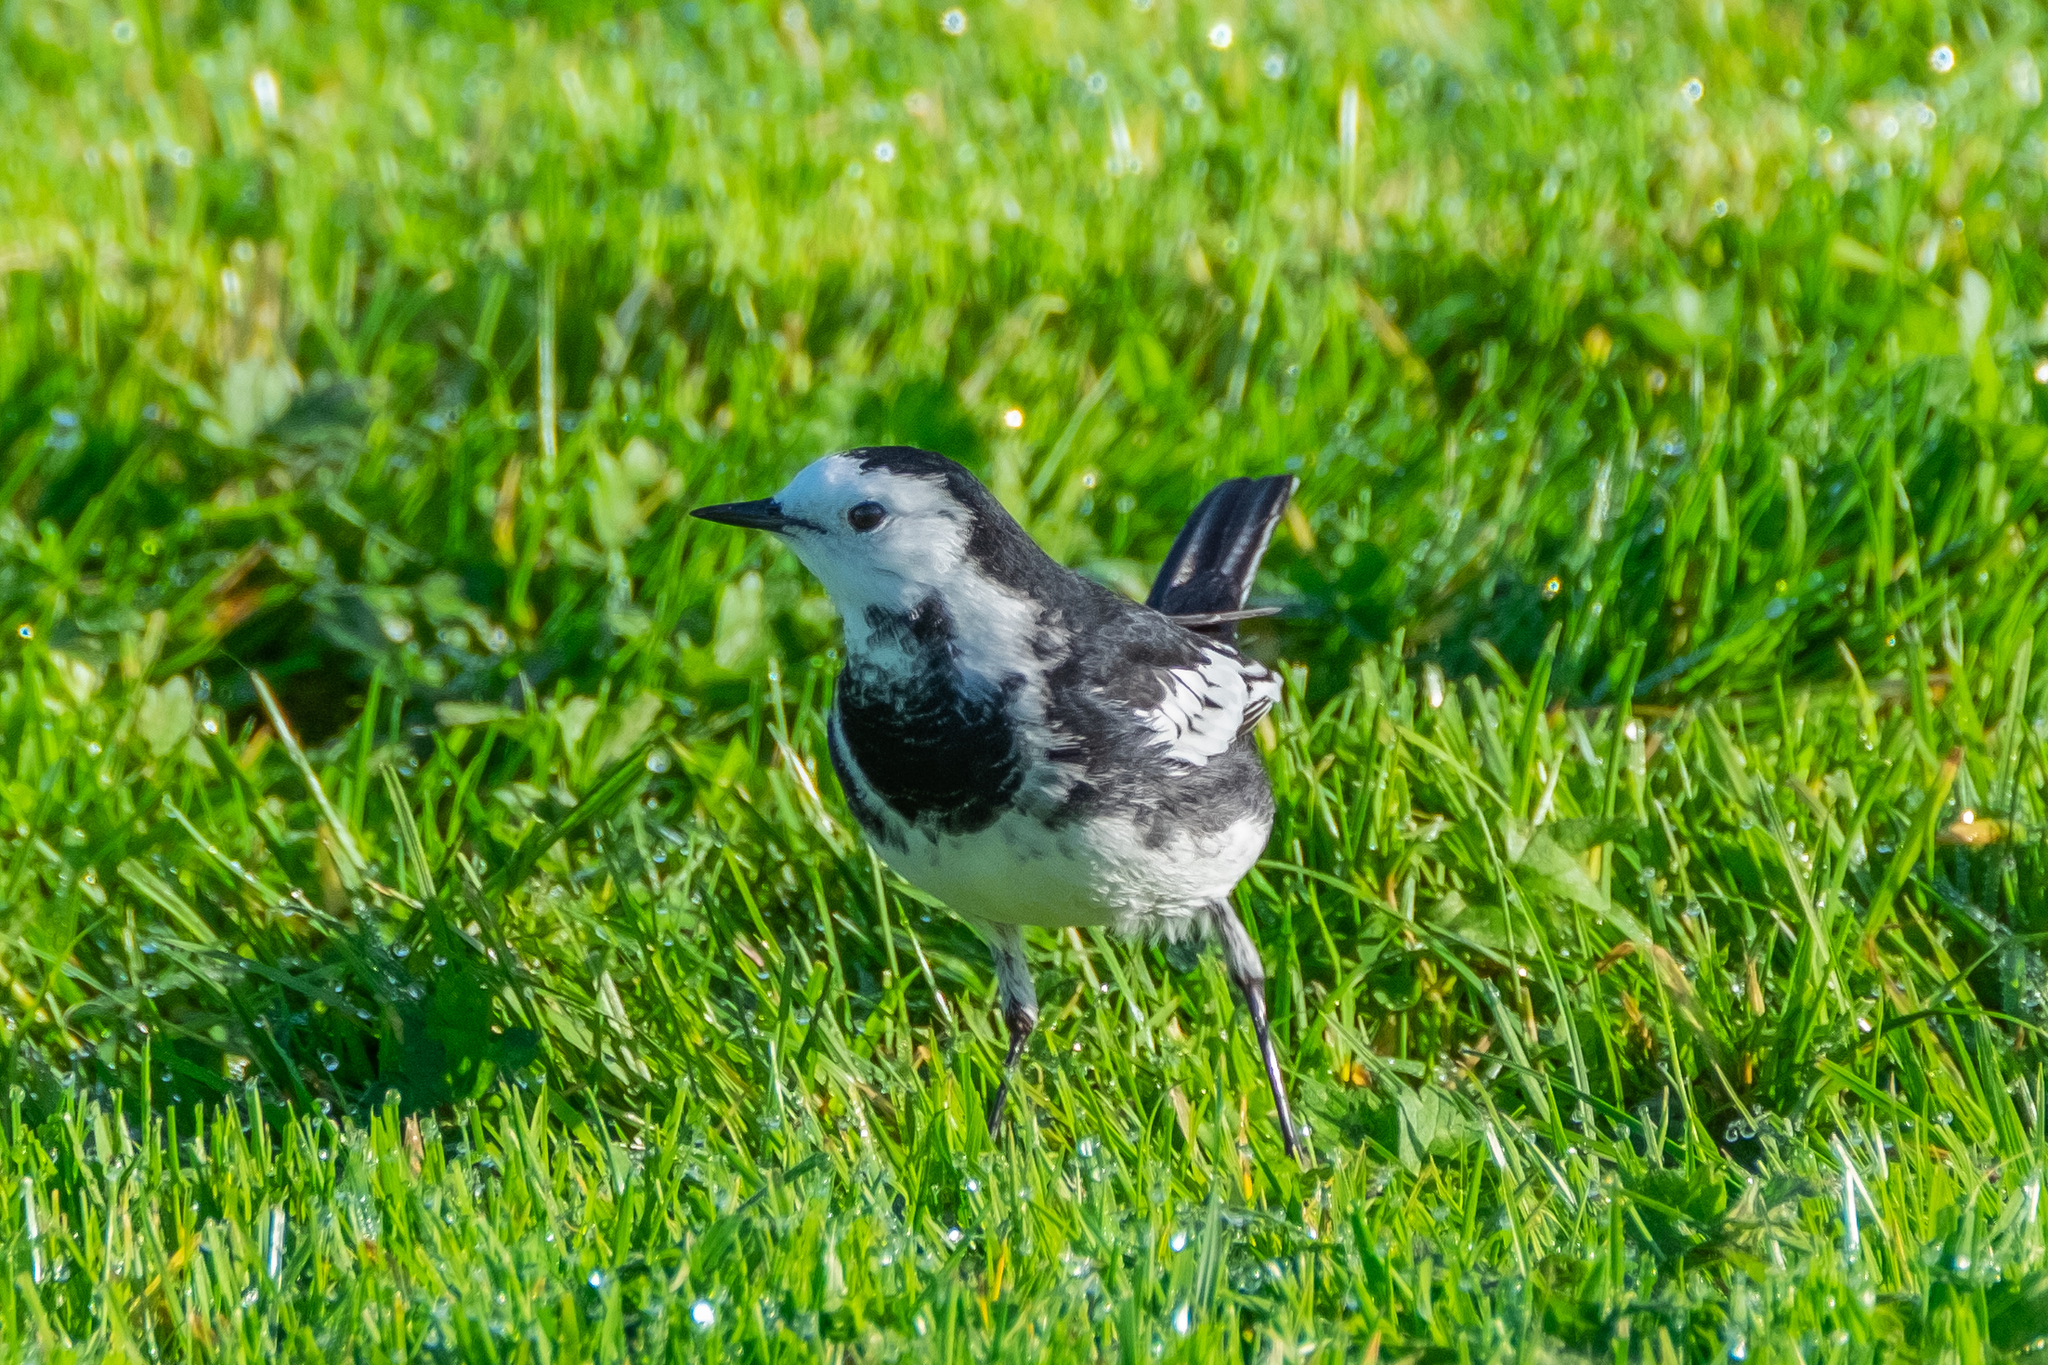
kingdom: Animalia
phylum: Chordata
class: Aves
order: Passeriformes
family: Motacillidae
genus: Motacilla
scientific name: Motacilla alba
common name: White wagtail
